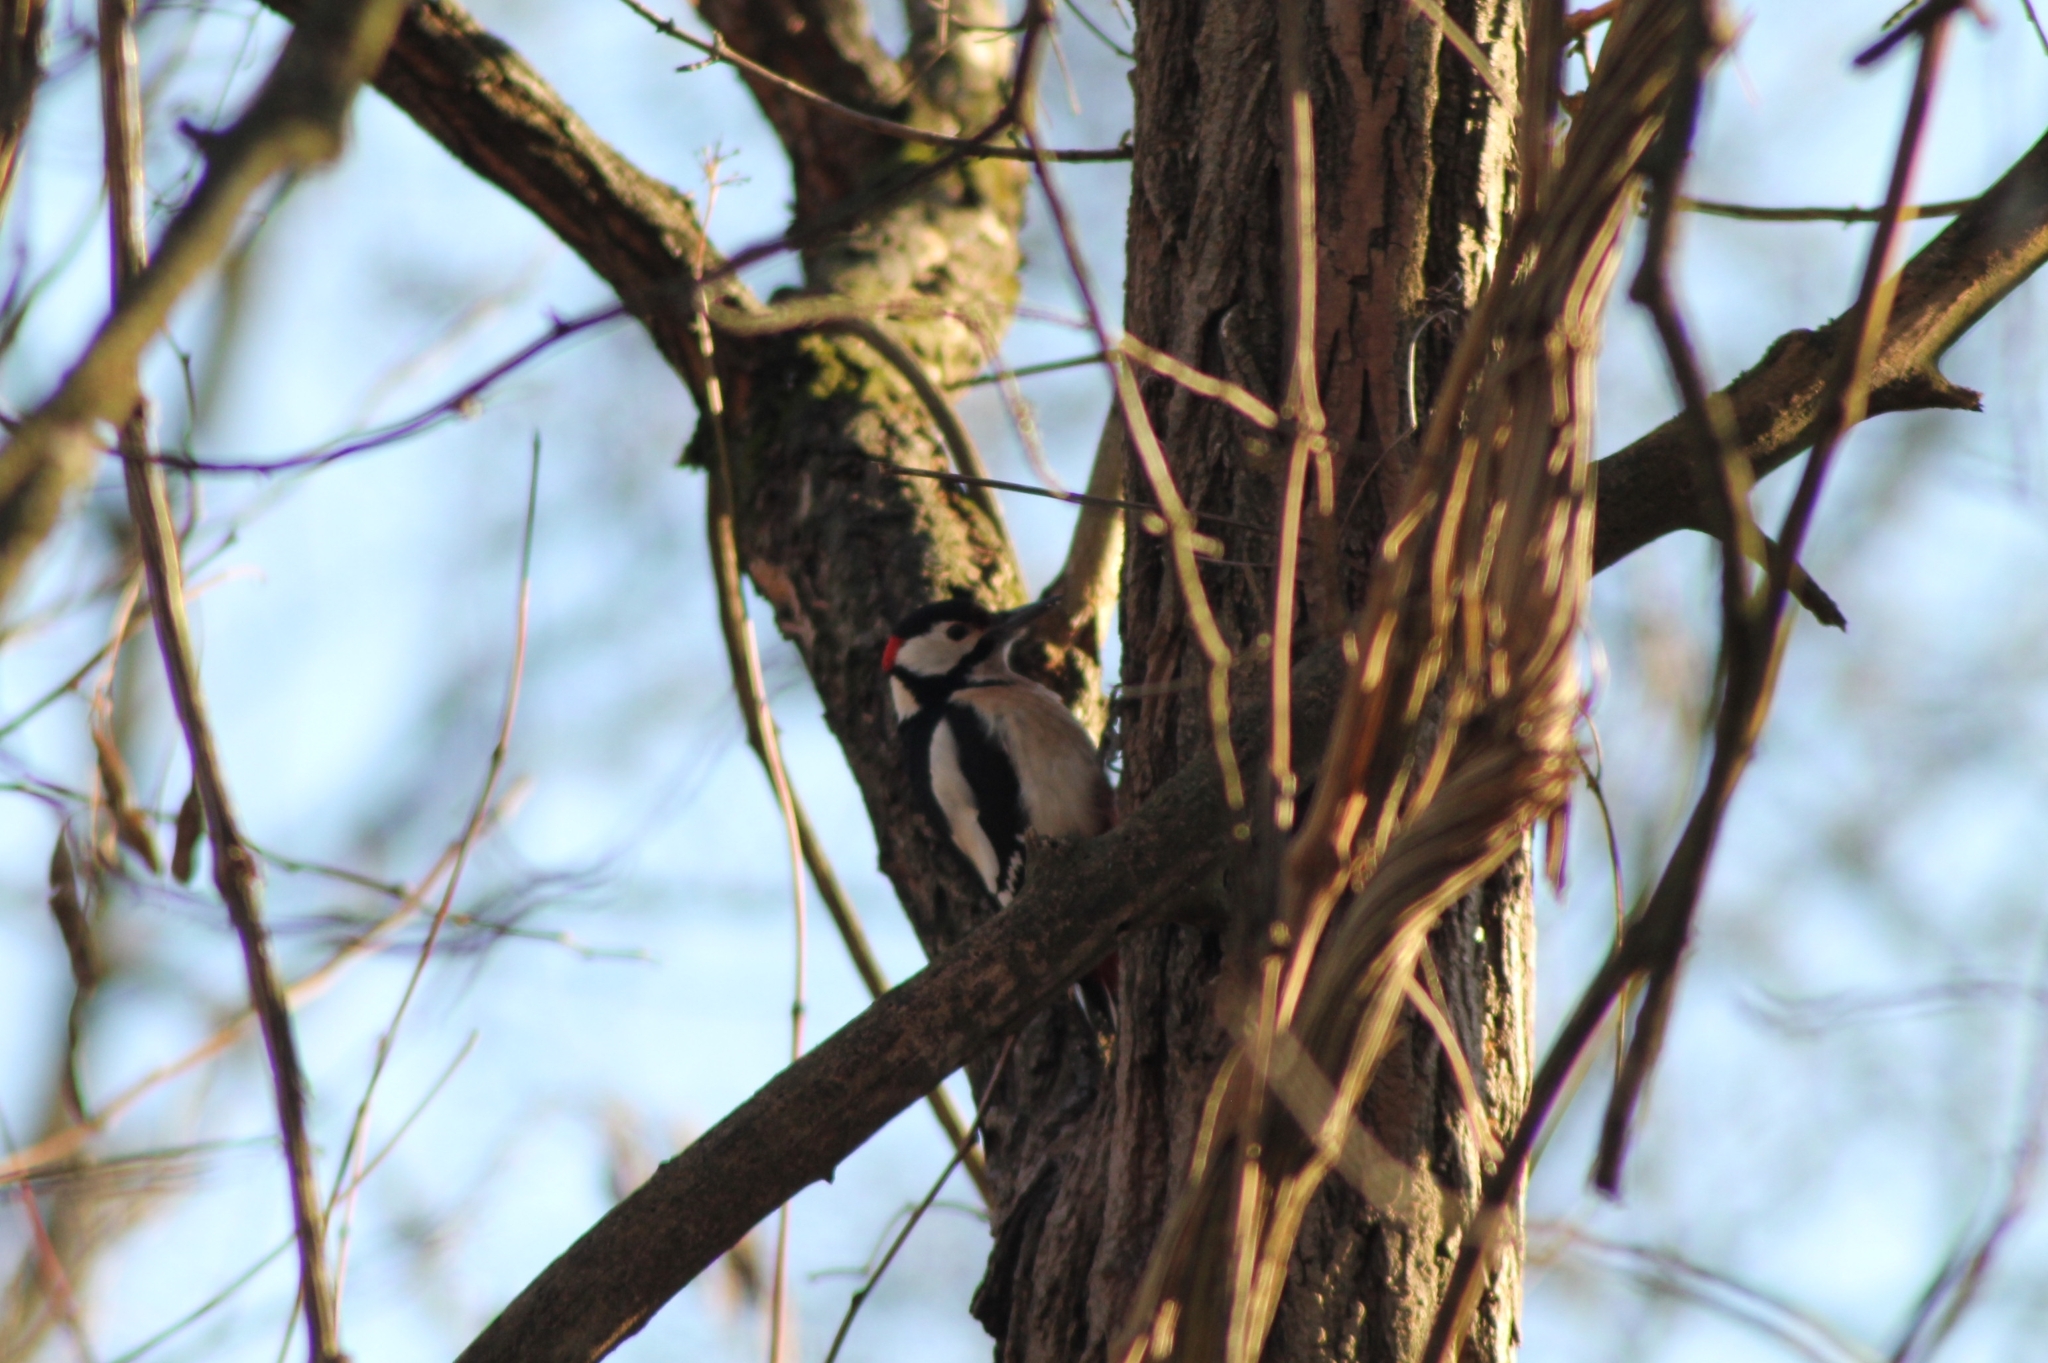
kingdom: Animalia
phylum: Chordata
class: Aves
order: Piciformes
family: Picidae
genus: Dendrocopos
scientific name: Dendrocopos major
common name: Great spotted woodpecker
